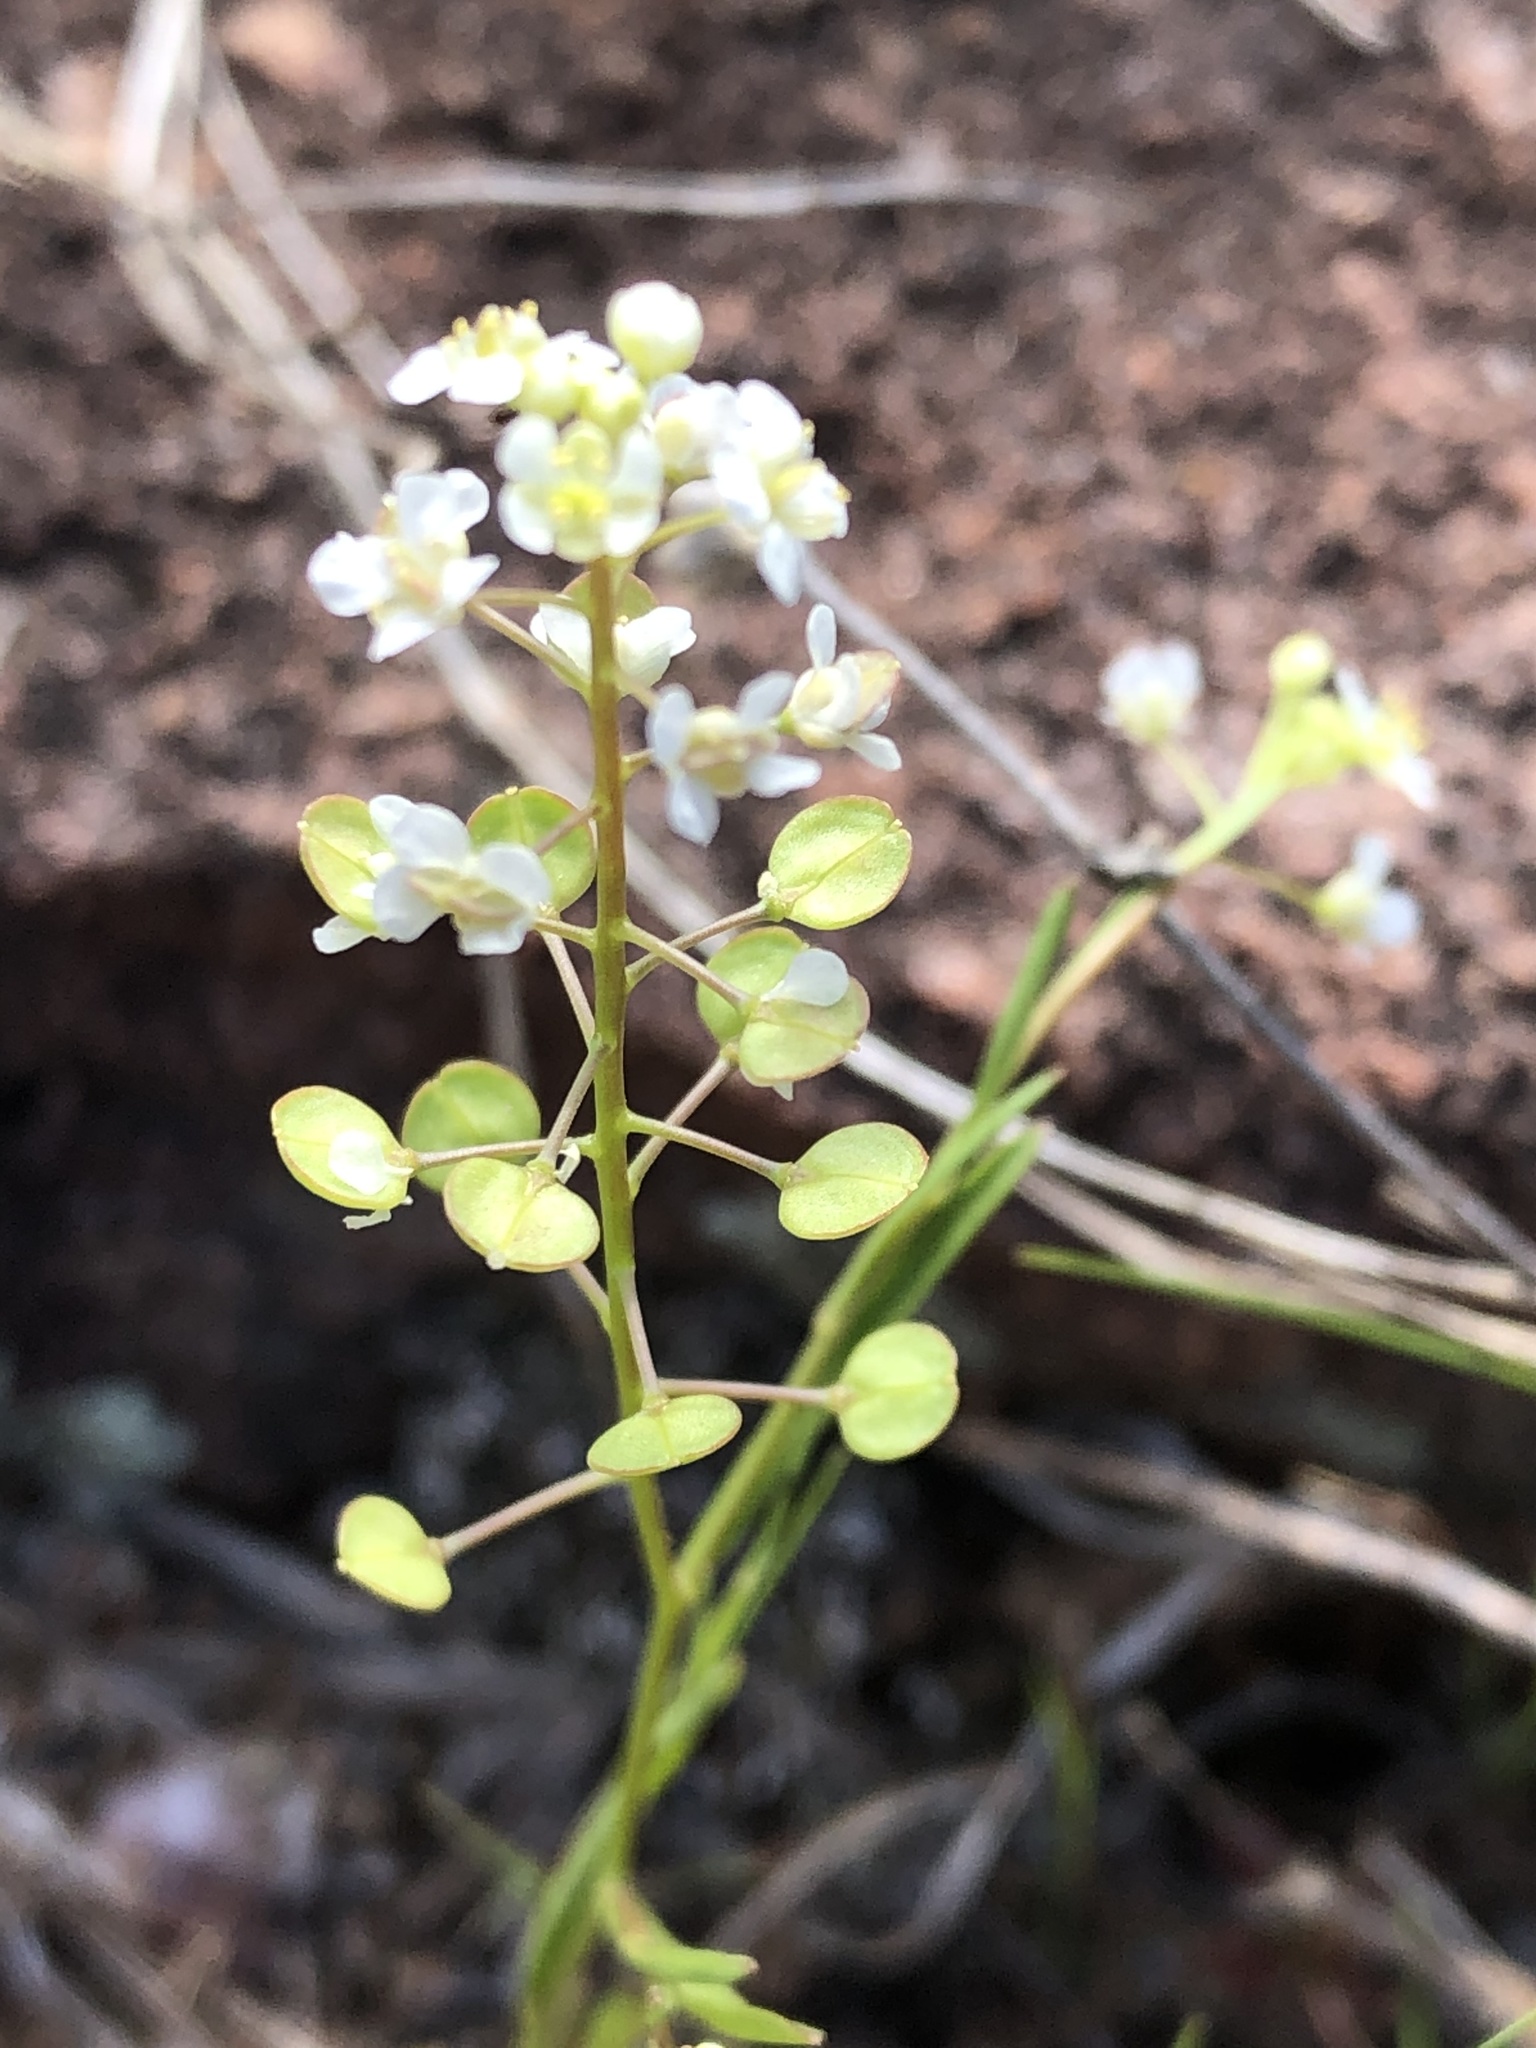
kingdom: Plantae
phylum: Tracheophyta
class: Magnoliopsida
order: Brassicales
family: Brassicaceae
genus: Lepidium
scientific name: Lepidium virginicum
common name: Least pepperwort
